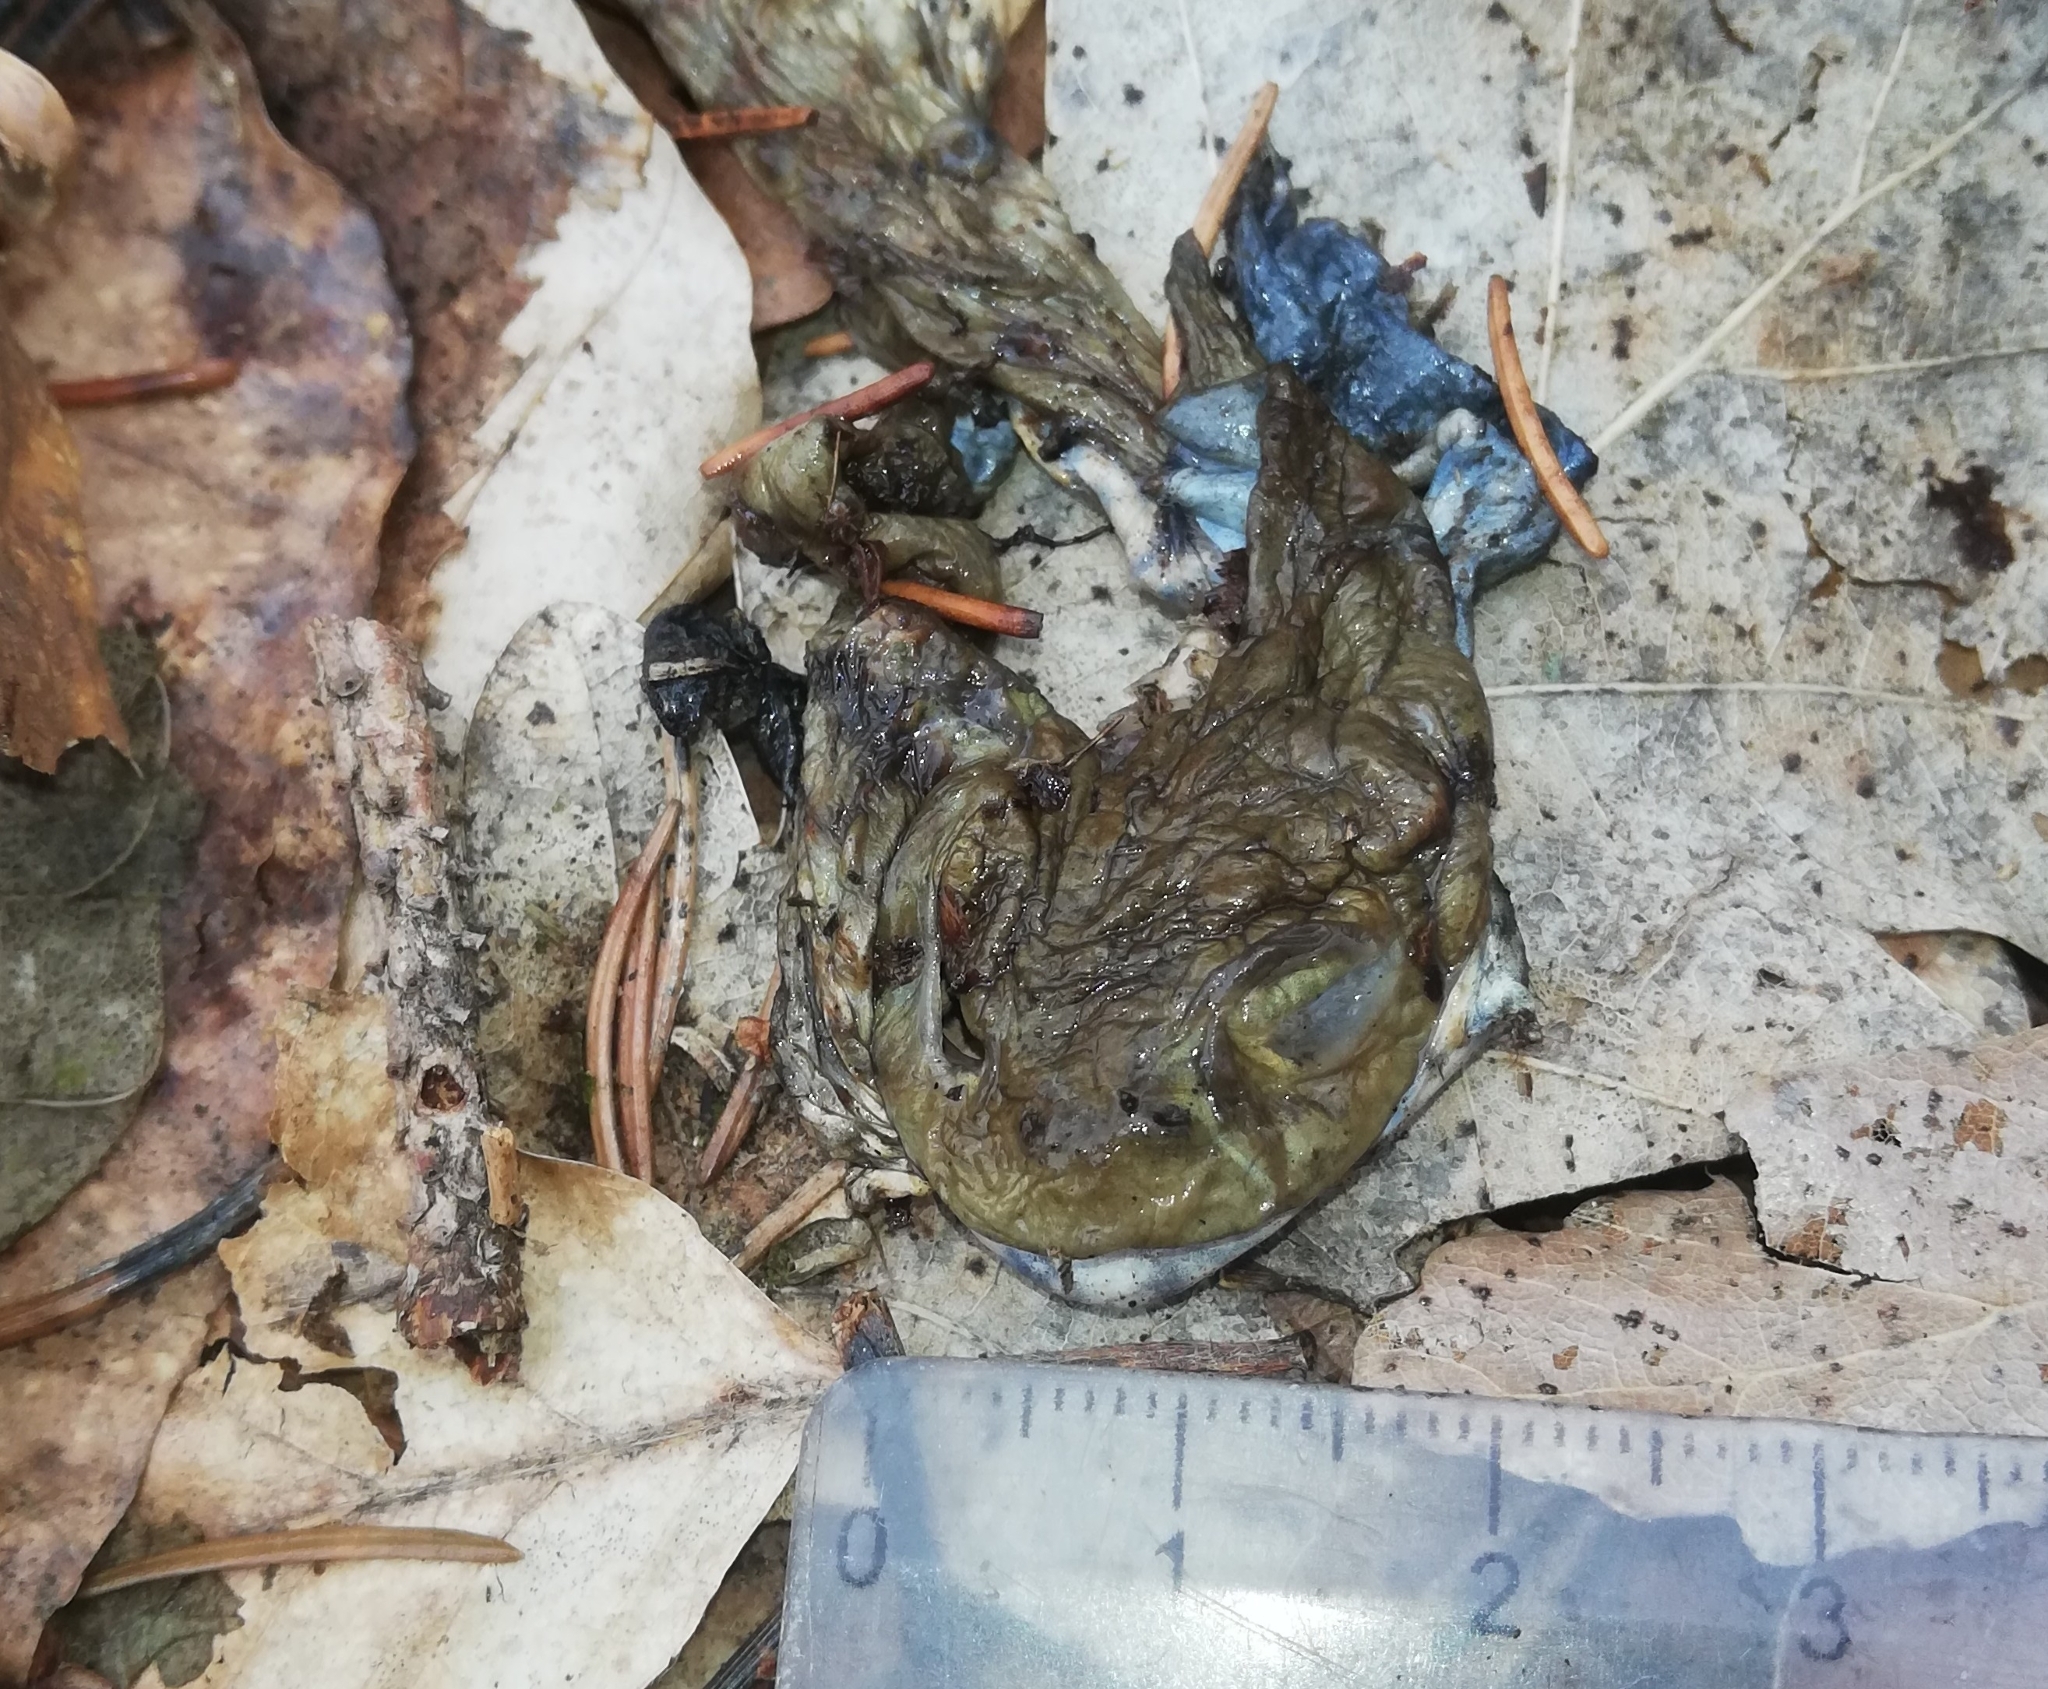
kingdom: Animalia
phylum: Chordata
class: Amphibia
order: Anura
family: Bufonidae
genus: Bufo
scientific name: Bufo bufo
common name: Common toad
